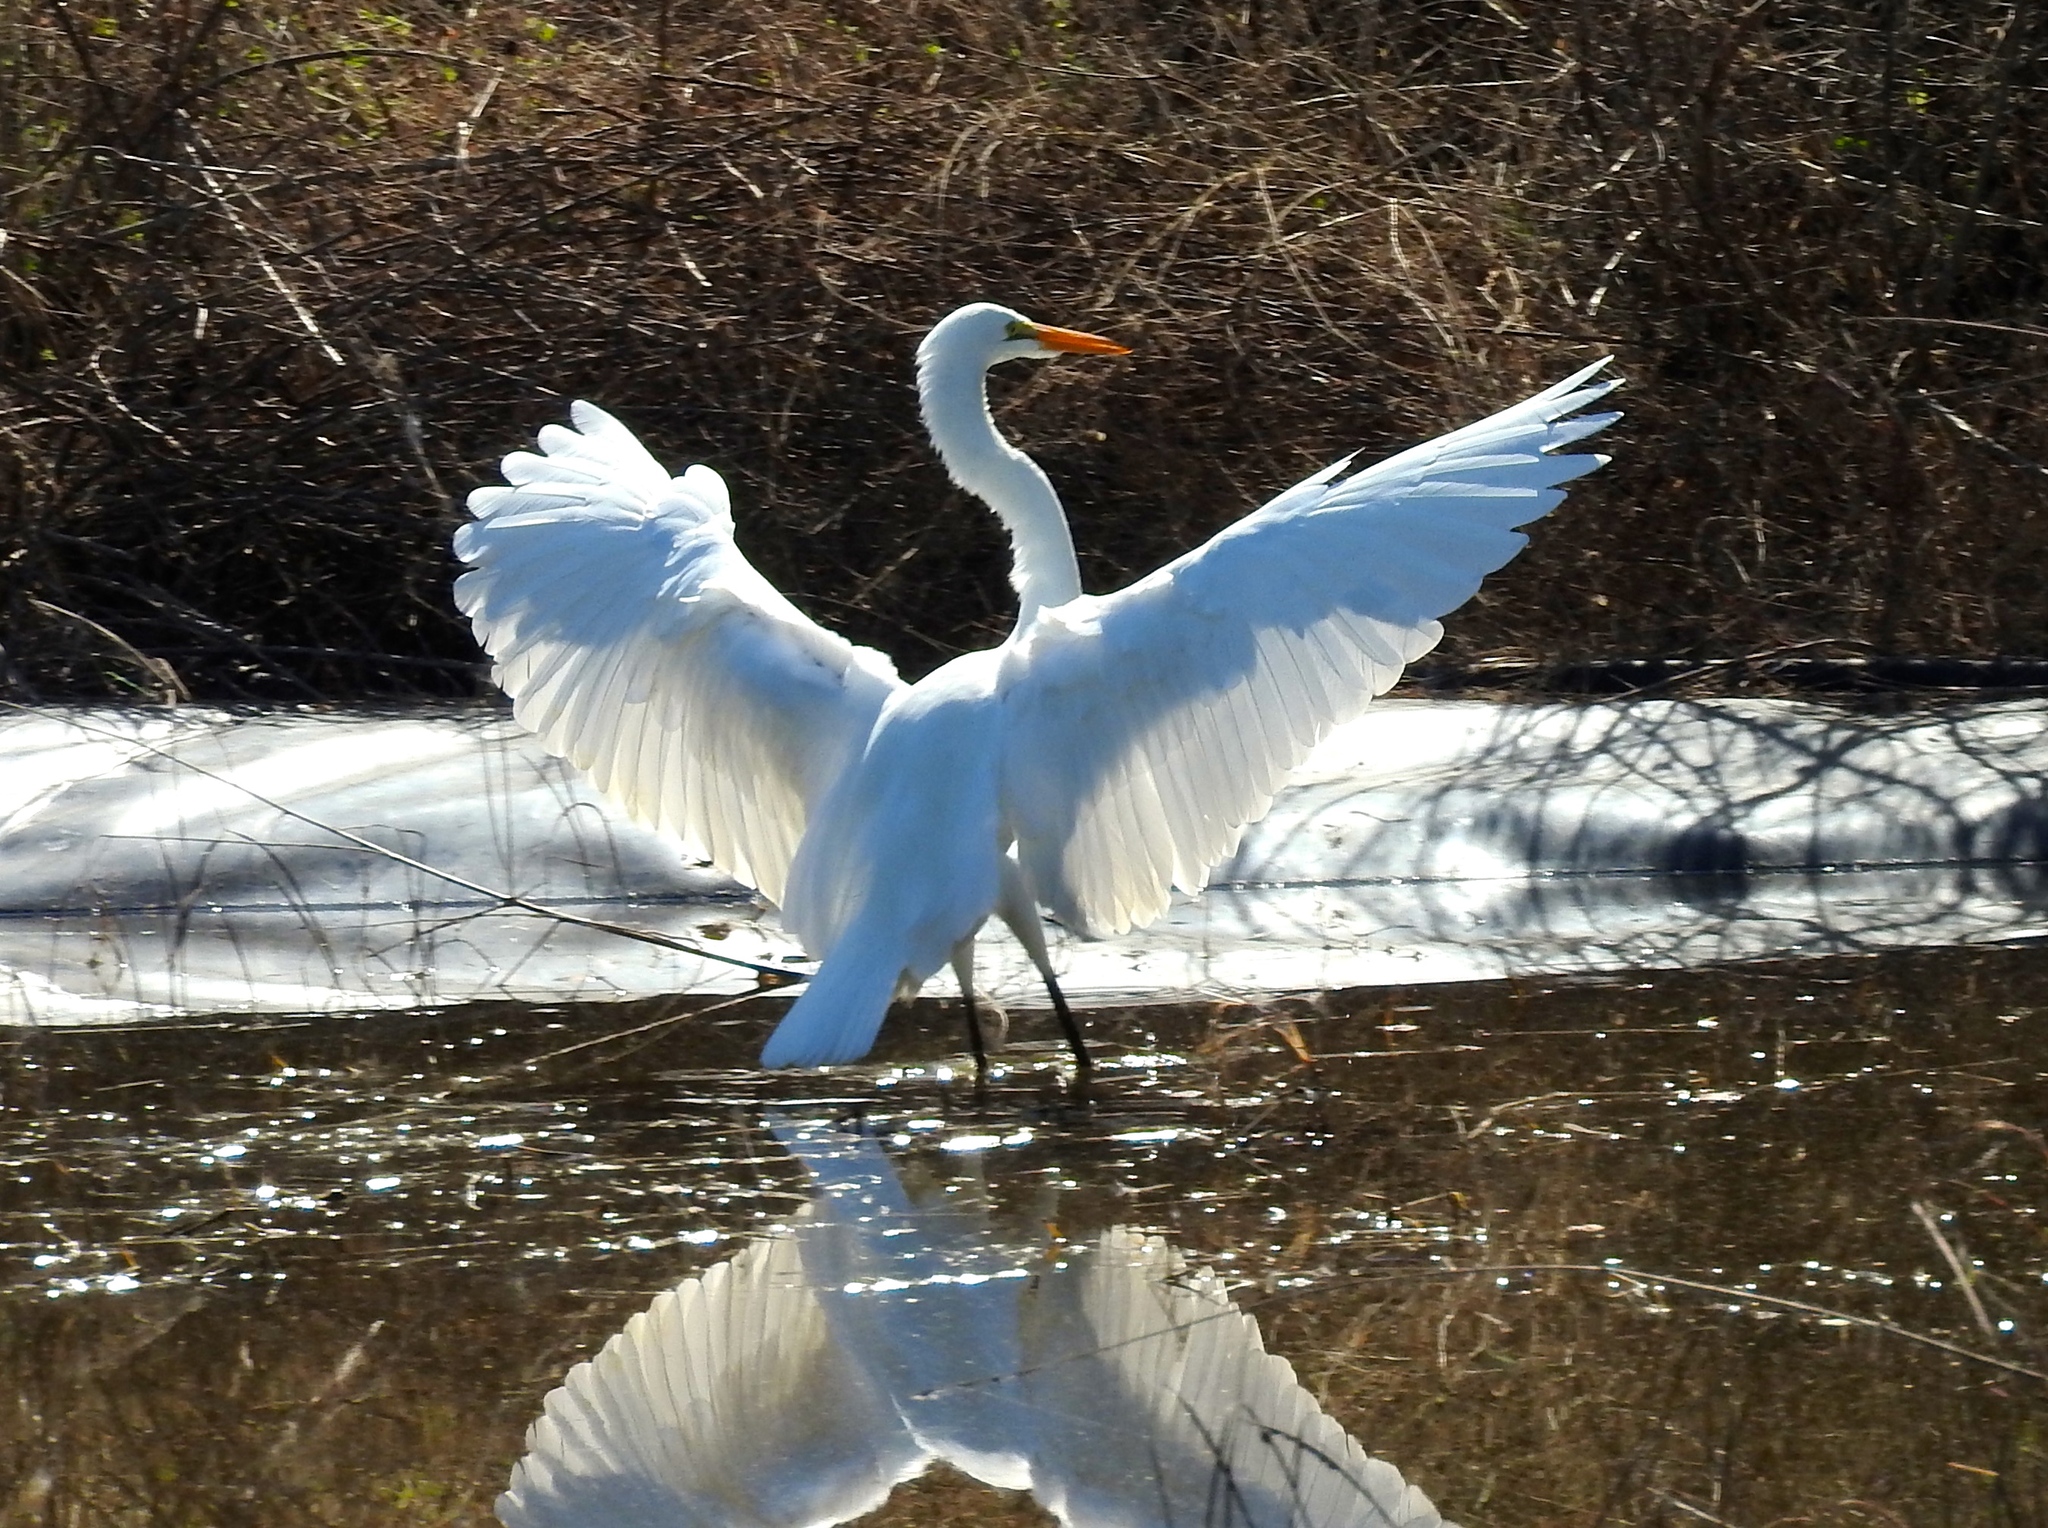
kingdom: Animalia
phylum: Chordata
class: Aves
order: Pelecaniformes
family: Ardeidae
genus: Ardea
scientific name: Ardea alba
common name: Great egret
